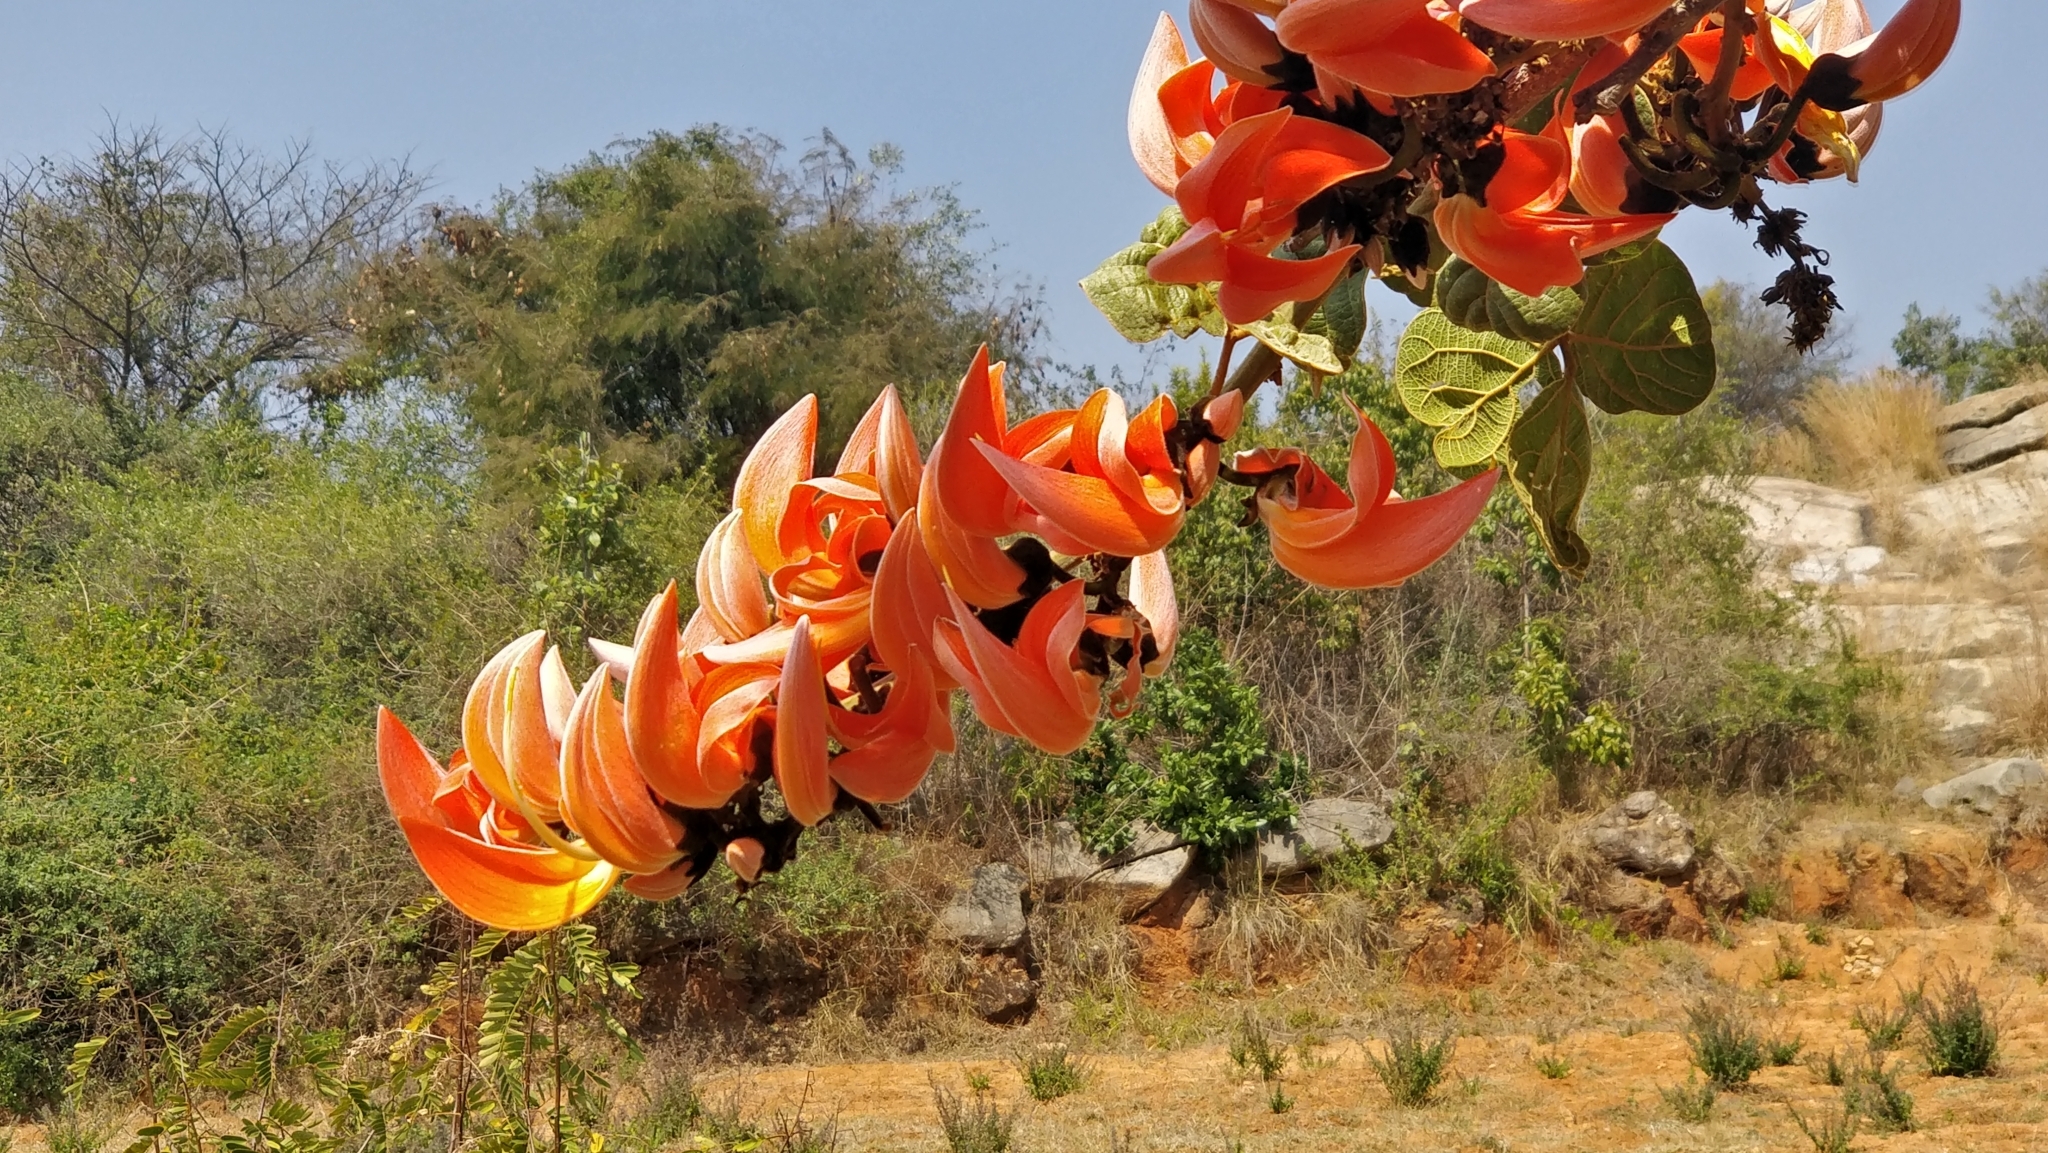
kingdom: Plantae
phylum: Tracheophyta
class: Magnoliopsida
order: Fabales
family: Fabaceae
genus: Butea
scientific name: Butea monosperma
